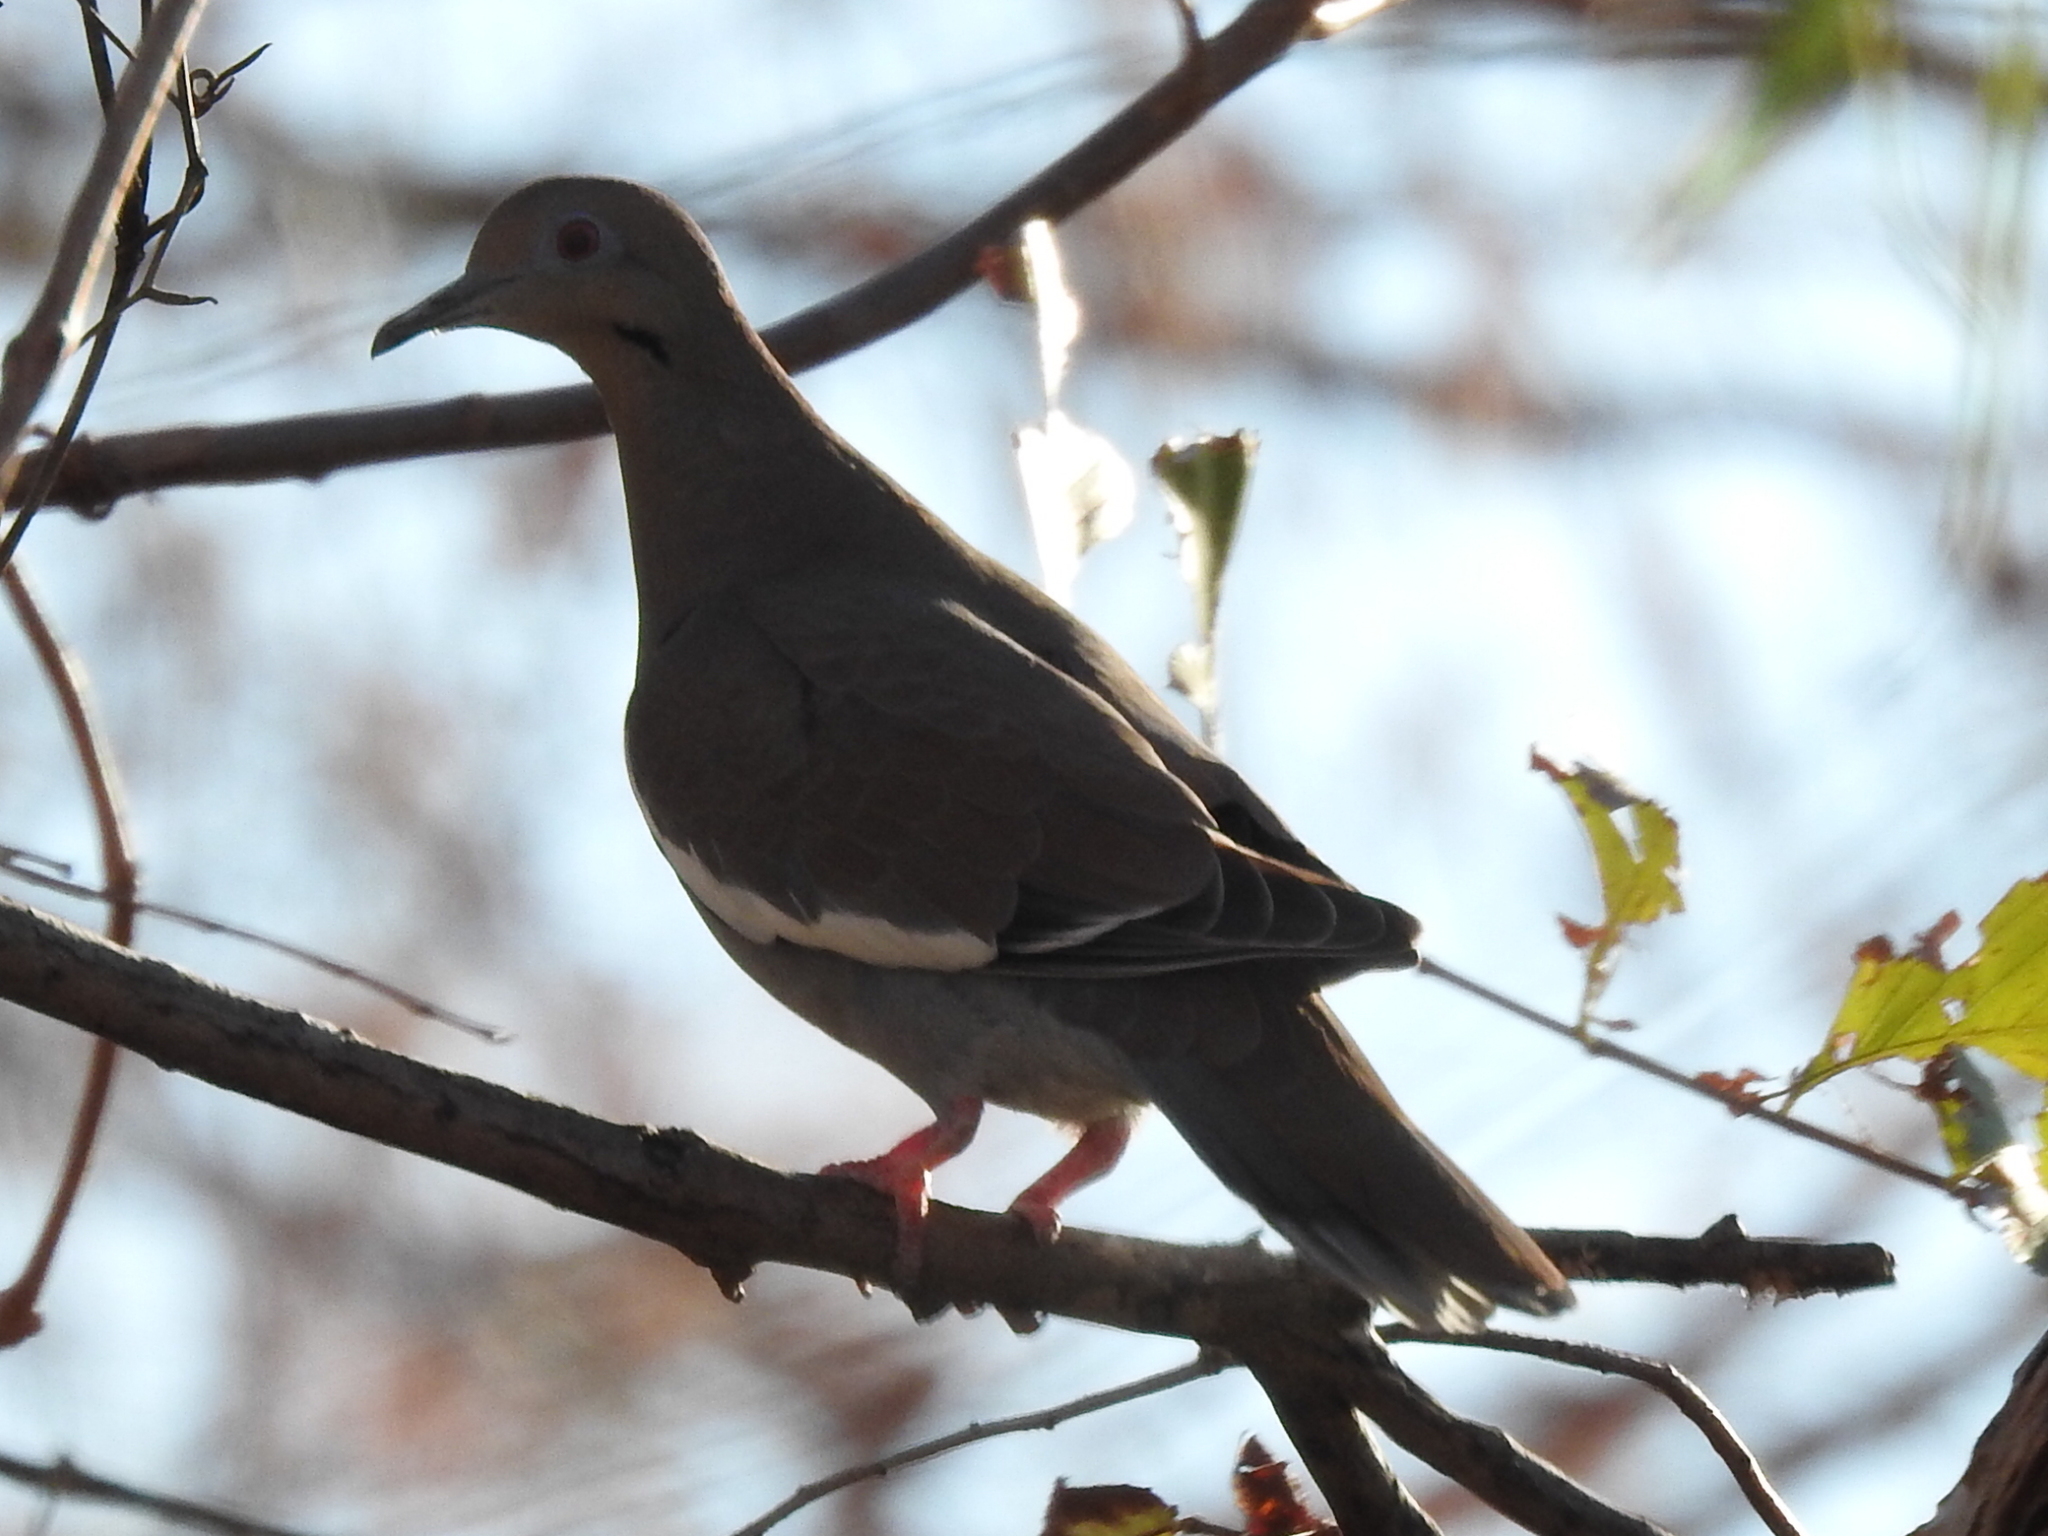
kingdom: Animalia
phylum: Chordata
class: Aves
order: Columbiformes
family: Columbidae
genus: Zenaida
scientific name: Zenaida asiatica
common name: White-winged dove
